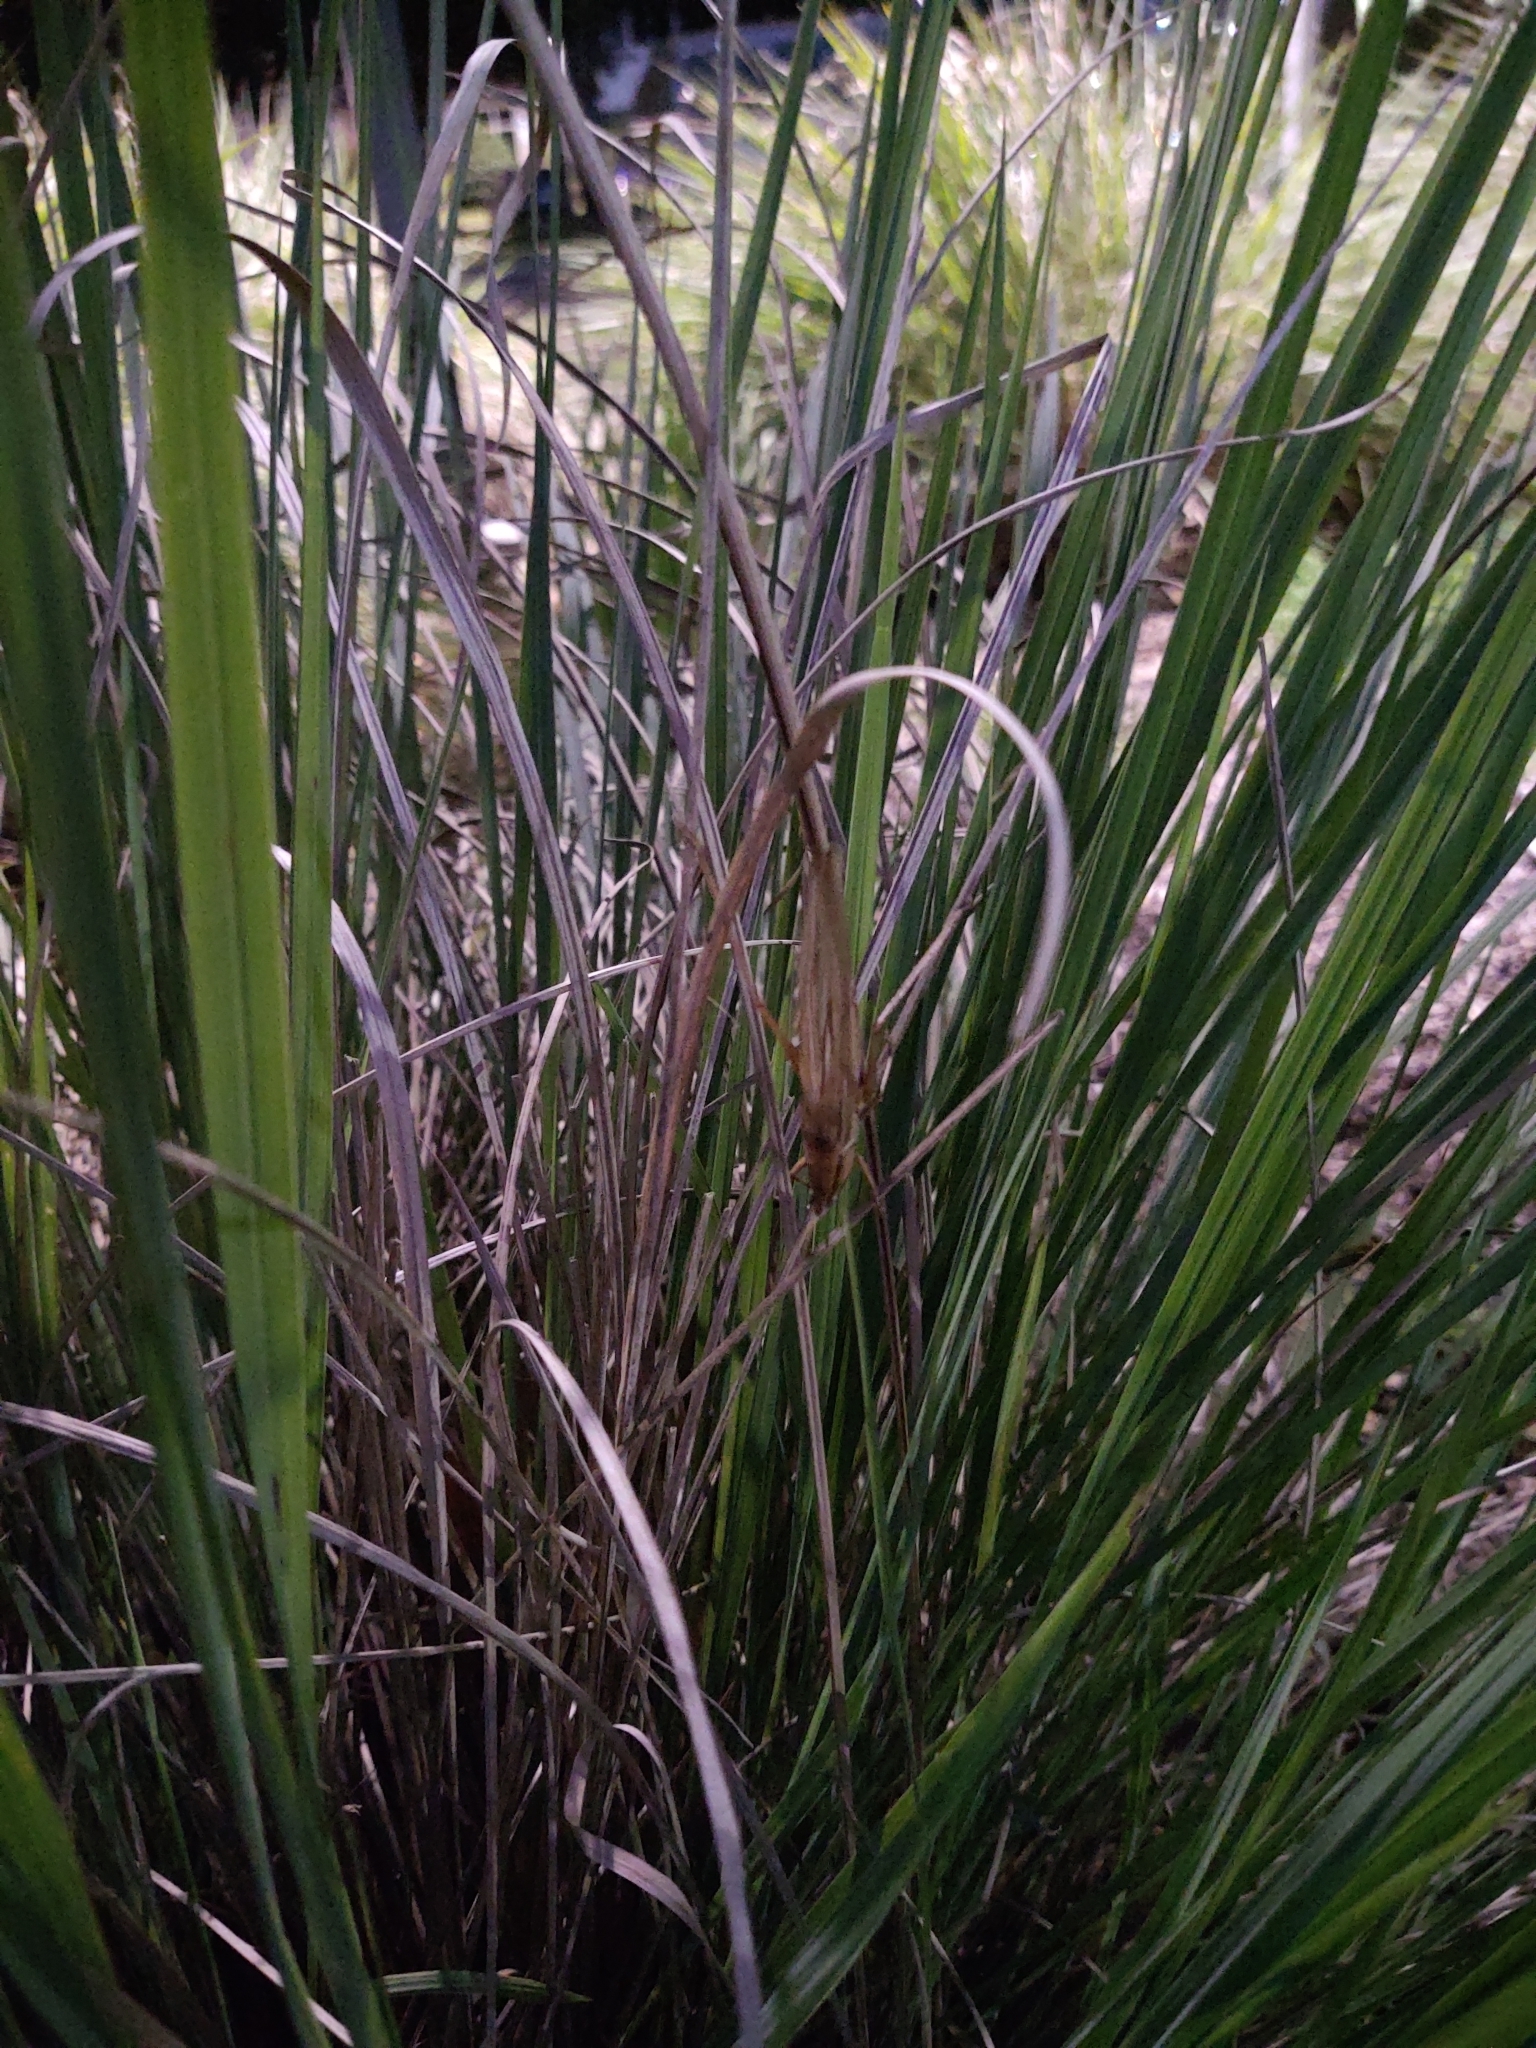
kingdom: Animalia
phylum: Arthropoda
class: Insecta
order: Orthoptera
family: Tettigoniidae
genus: Neoconocephalus
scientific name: Neoconocephalus triops
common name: Broad-tipped conehead
